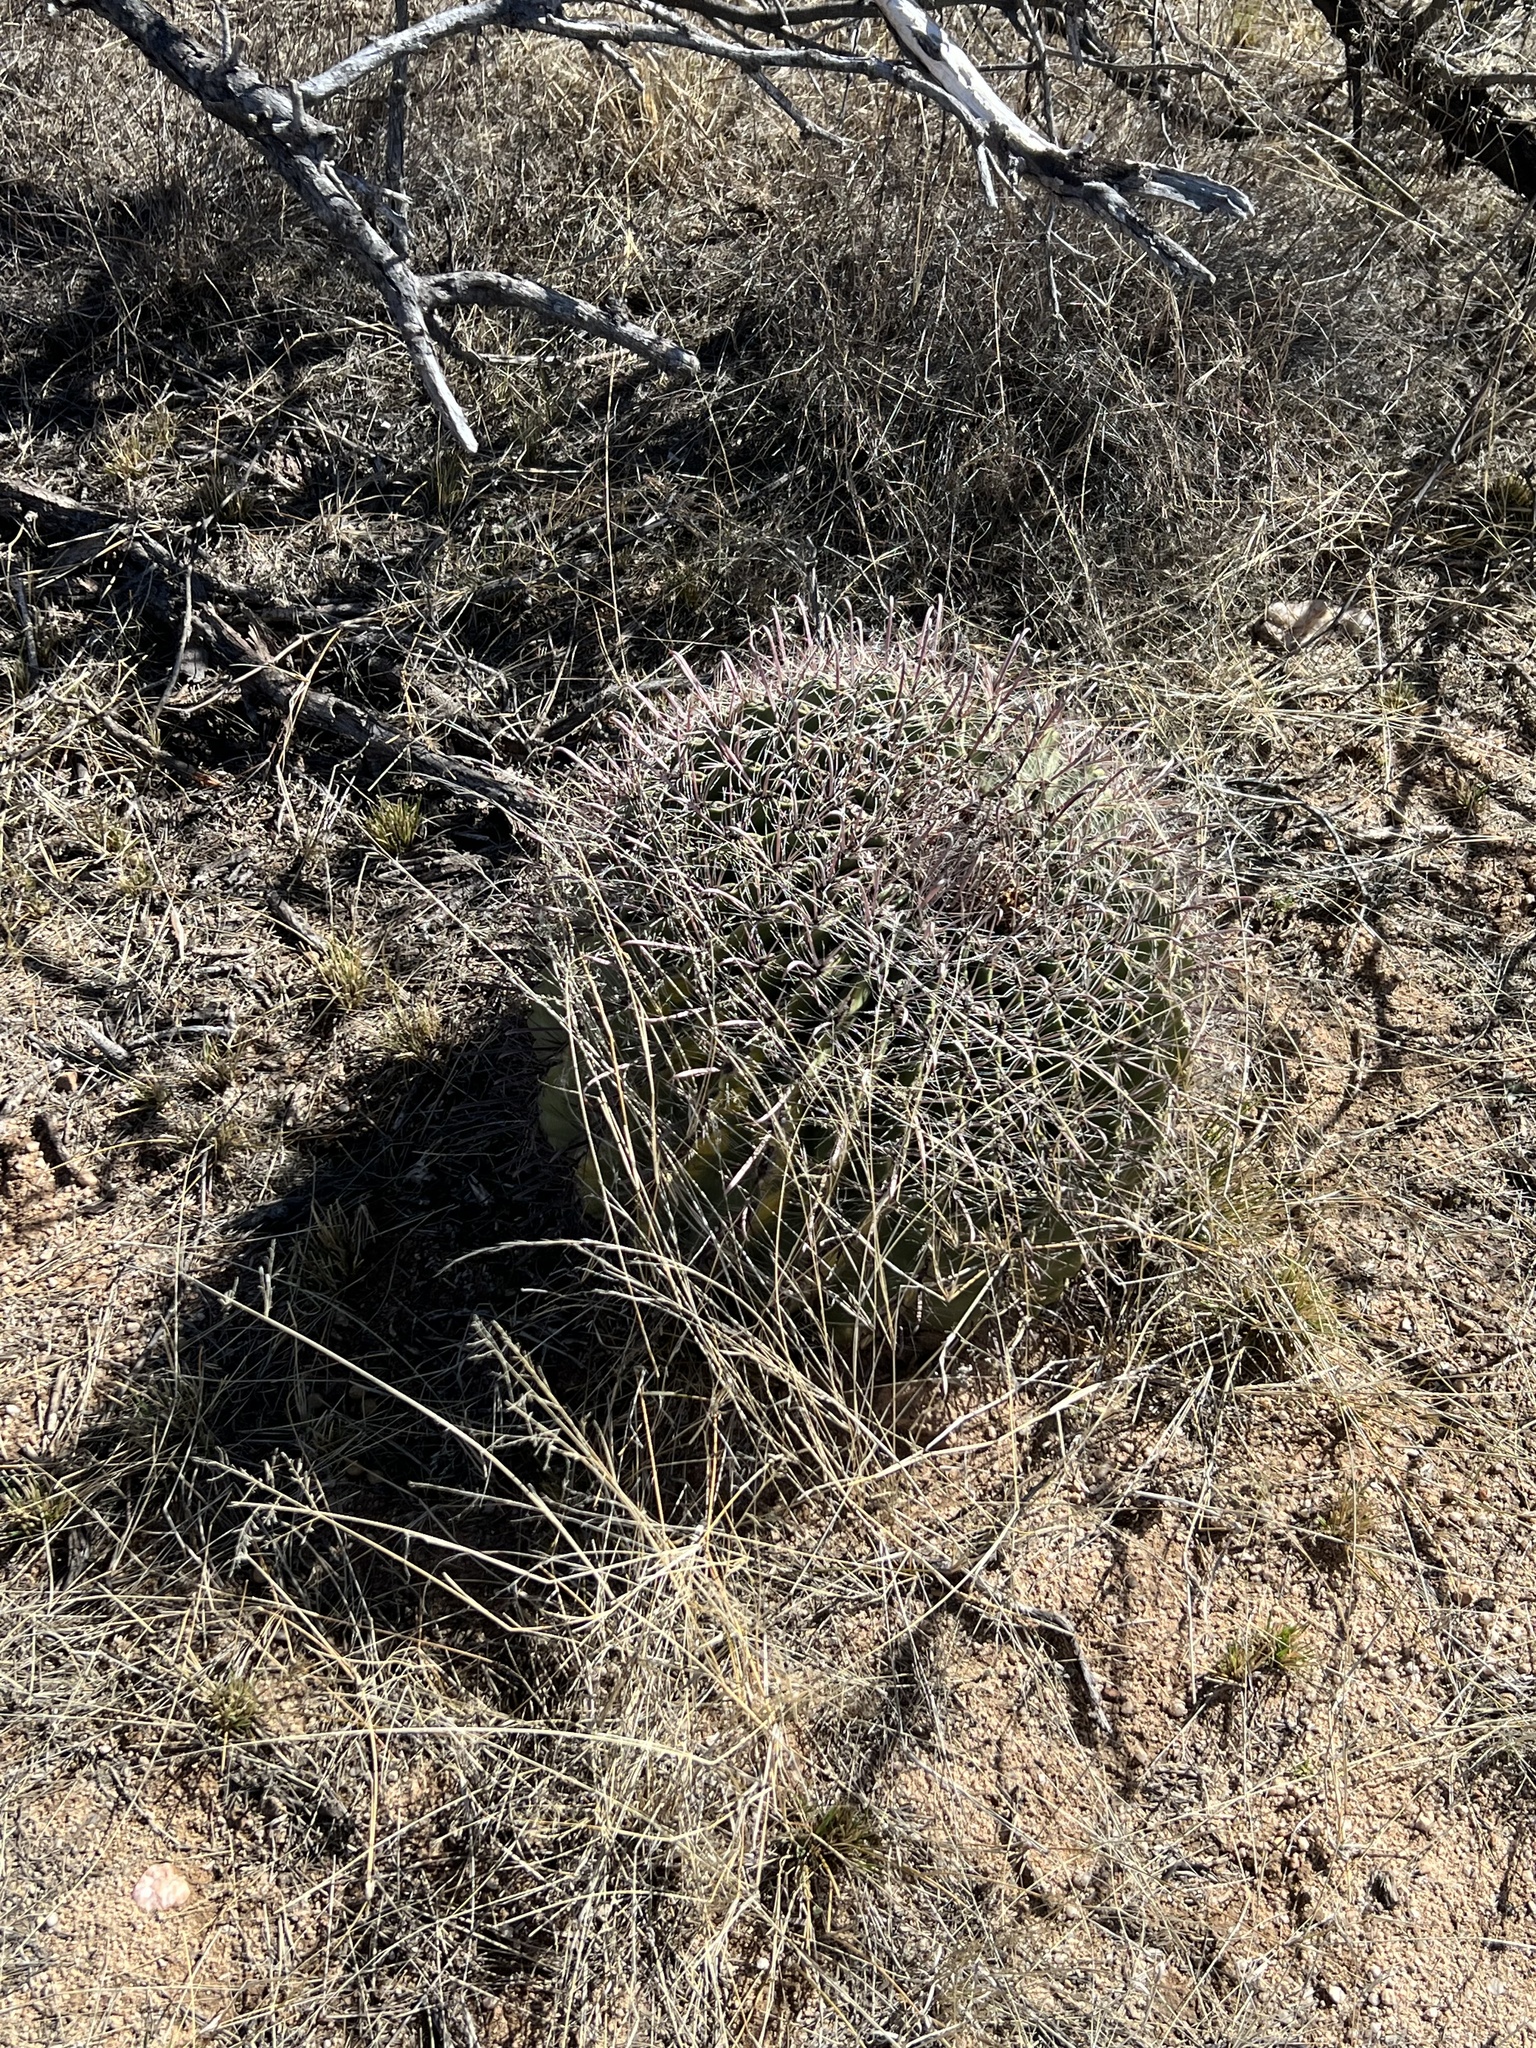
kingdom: Plantae
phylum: Tracheophyta
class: Magnoliopsida
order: Caryophyllales
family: Cactaceae
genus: Ferocactus
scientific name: Ferocactus wislizeni
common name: Candy barrel cactus
